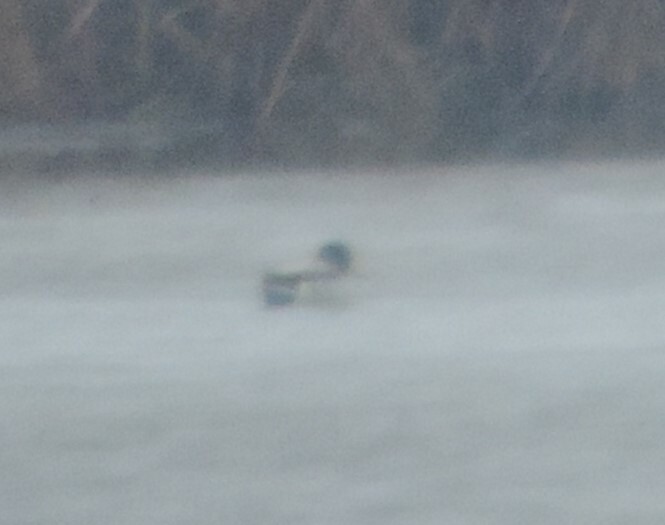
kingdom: Animalia
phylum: Chordata
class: Aves
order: Anseriformes
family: Anatidae
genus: Anas
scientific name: Anas platyrhynchos
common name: Mallard
